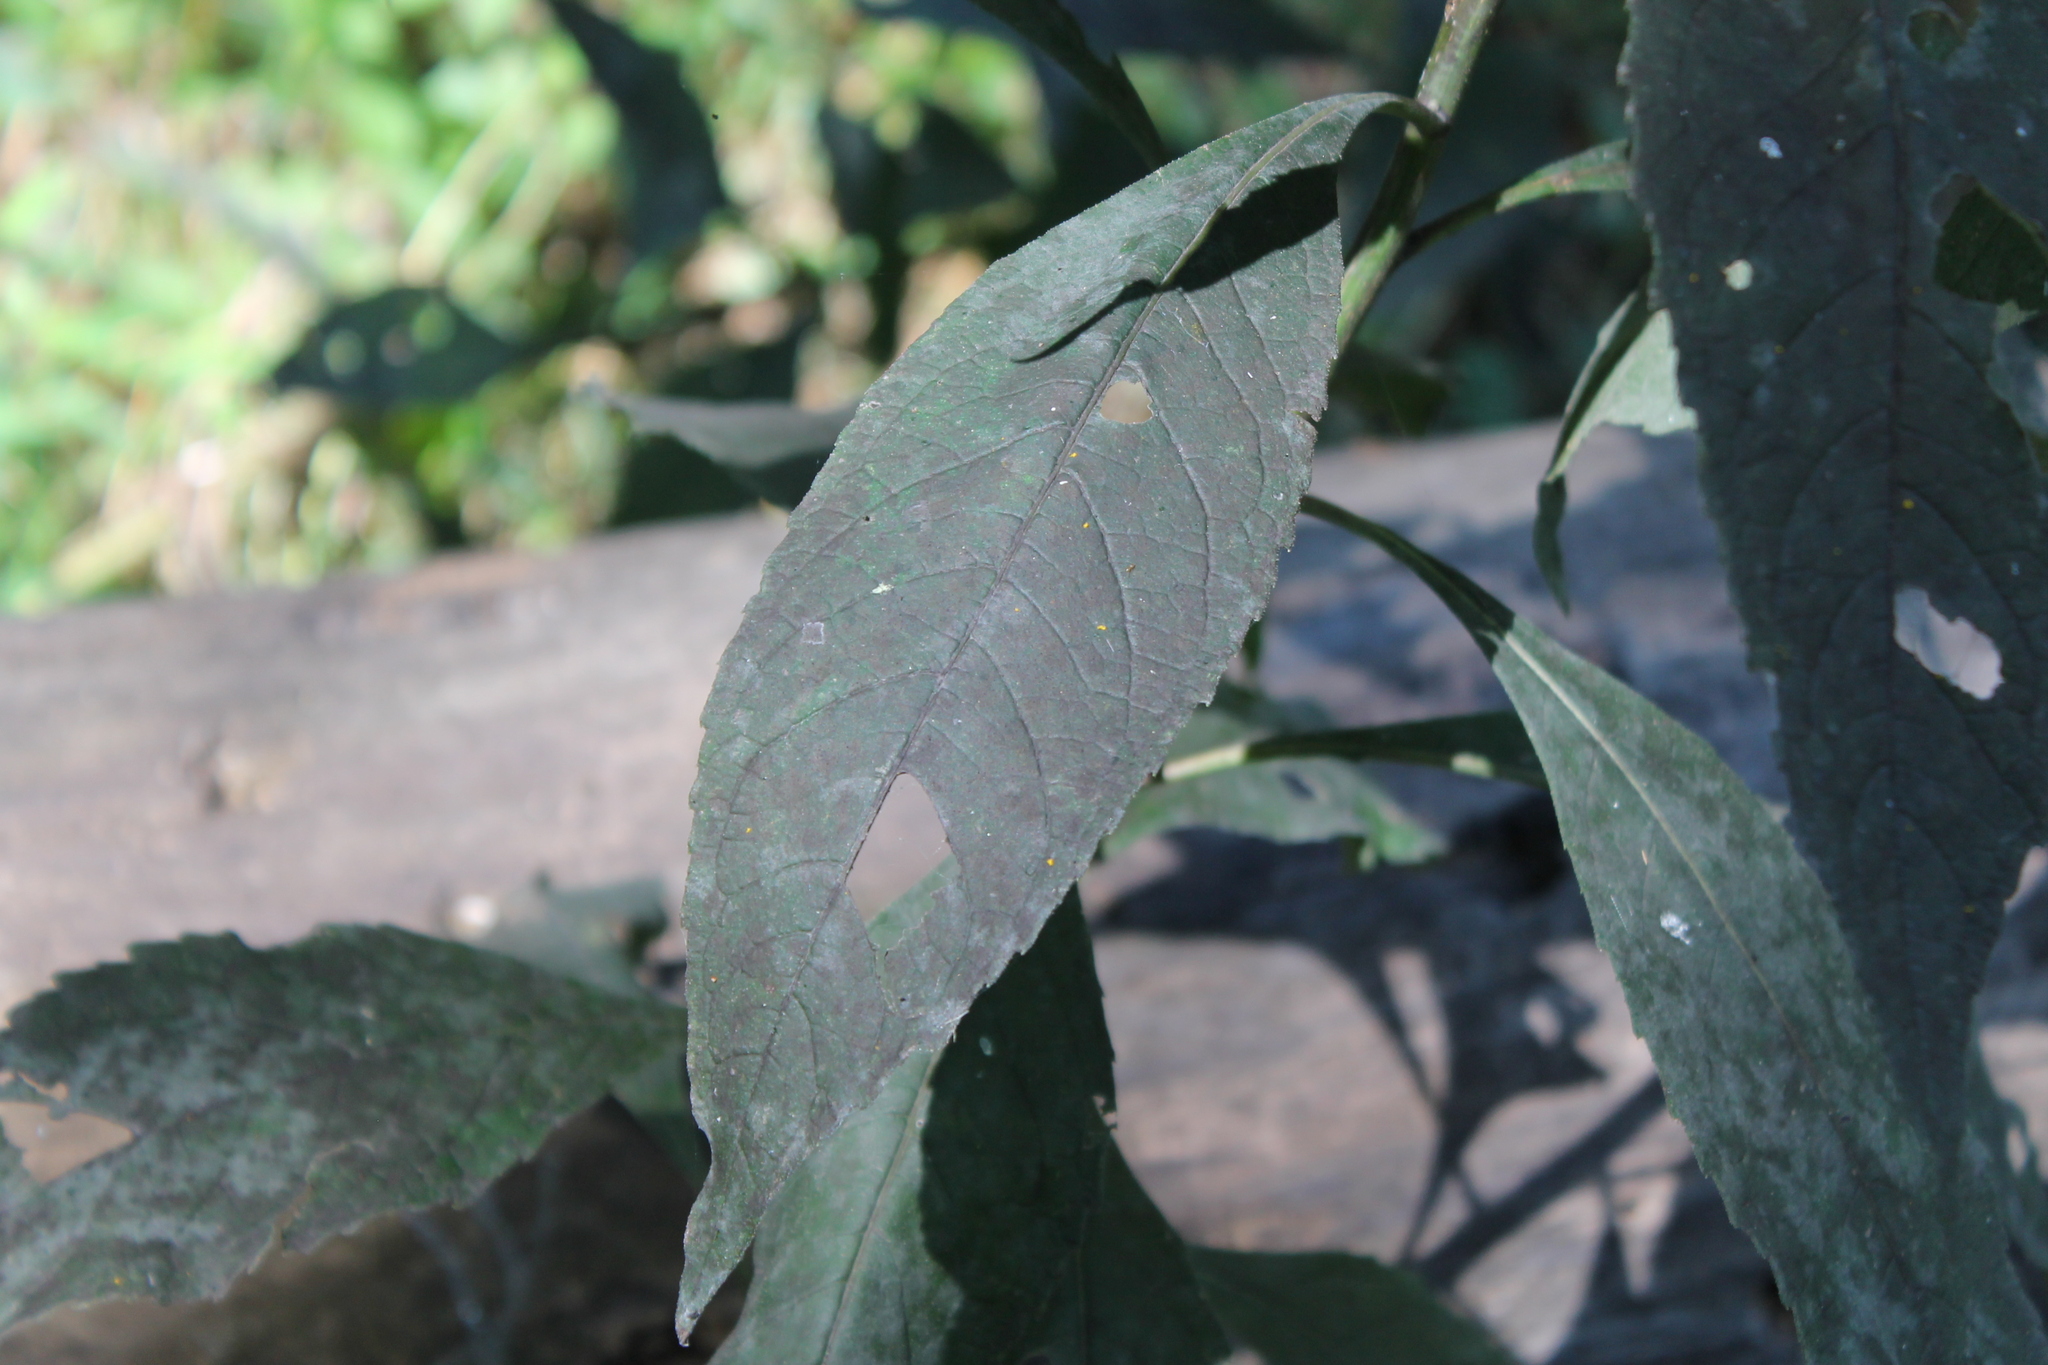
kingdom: Plantae
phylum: Tracheophyta
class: Magnoliopsida
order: Asterales
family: Asteraceae
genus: Verbesina
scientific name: Verbesina alternifolia
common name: Wingstem
